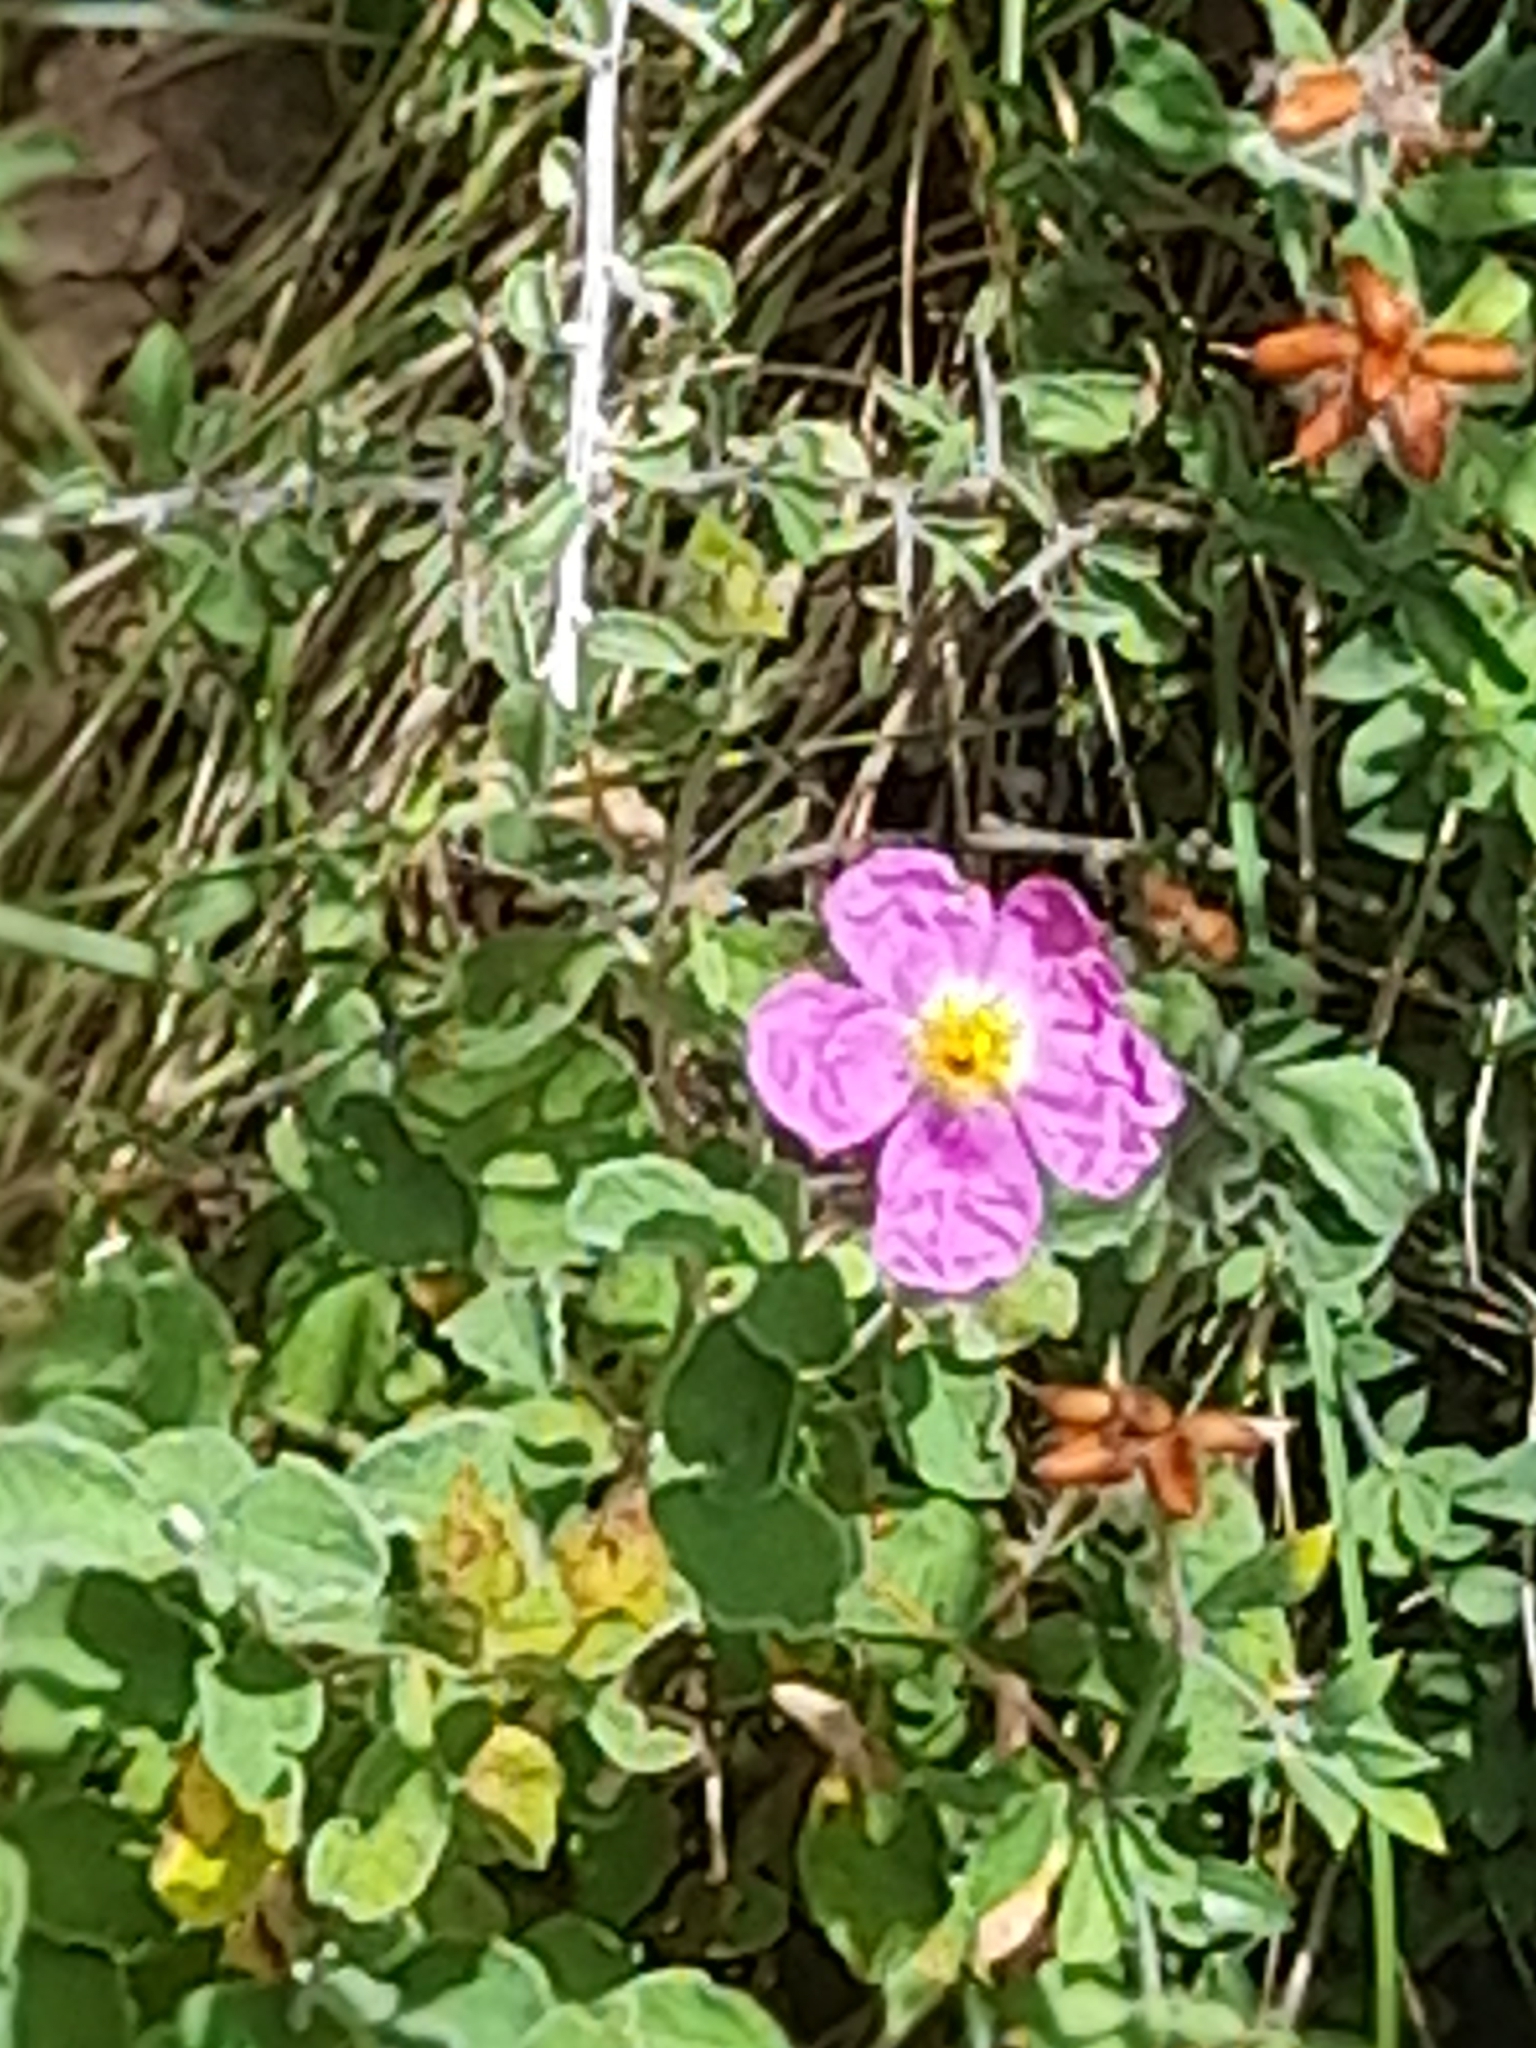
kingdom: Plantae
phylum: Tracheophyta
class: Magnoliopsida
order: Malvales
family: Cistaceae
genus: Cistus
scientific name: Cistus tauricus
